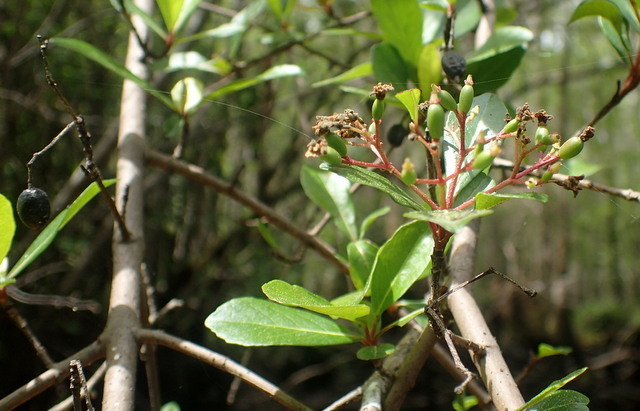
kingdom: Plantae
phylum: Tracheophyta
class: Magnoliopsida
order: Dipsacales
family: Viburnaceae
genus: Viburnum
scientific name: Viburnum obovatum
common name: Walter's viburnum
